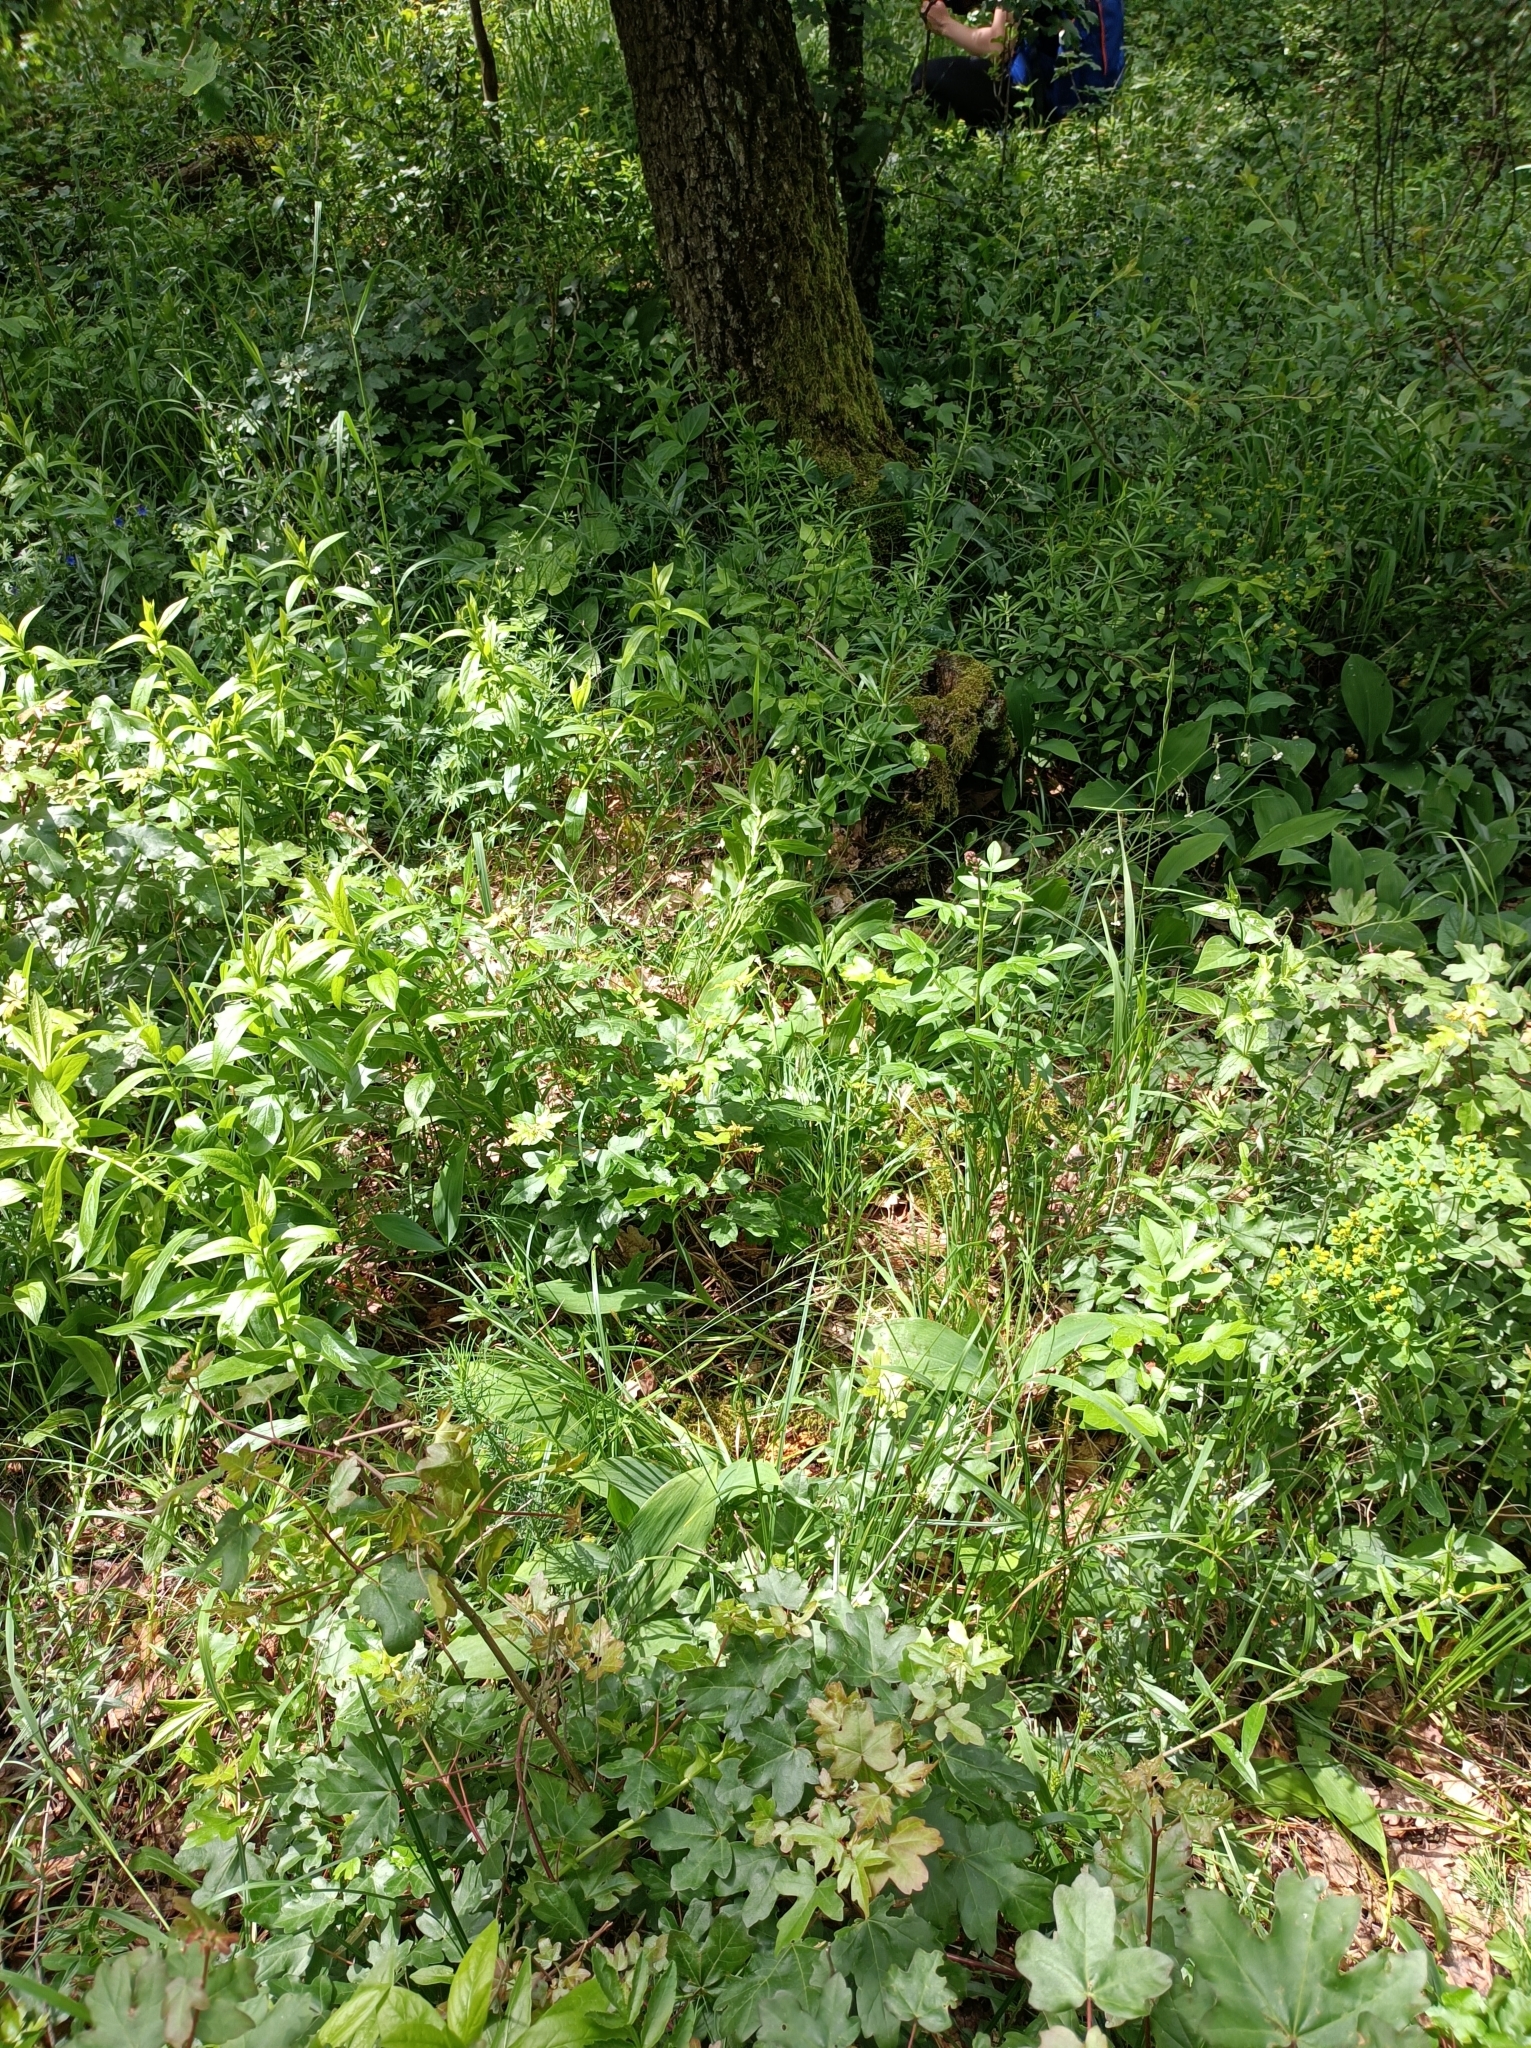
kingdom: Animalia
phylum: Arthropoda
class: Insecta
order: Hymenoptera
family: Formicidae
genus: Formica
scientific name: Formica fusca
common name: Silky ant
